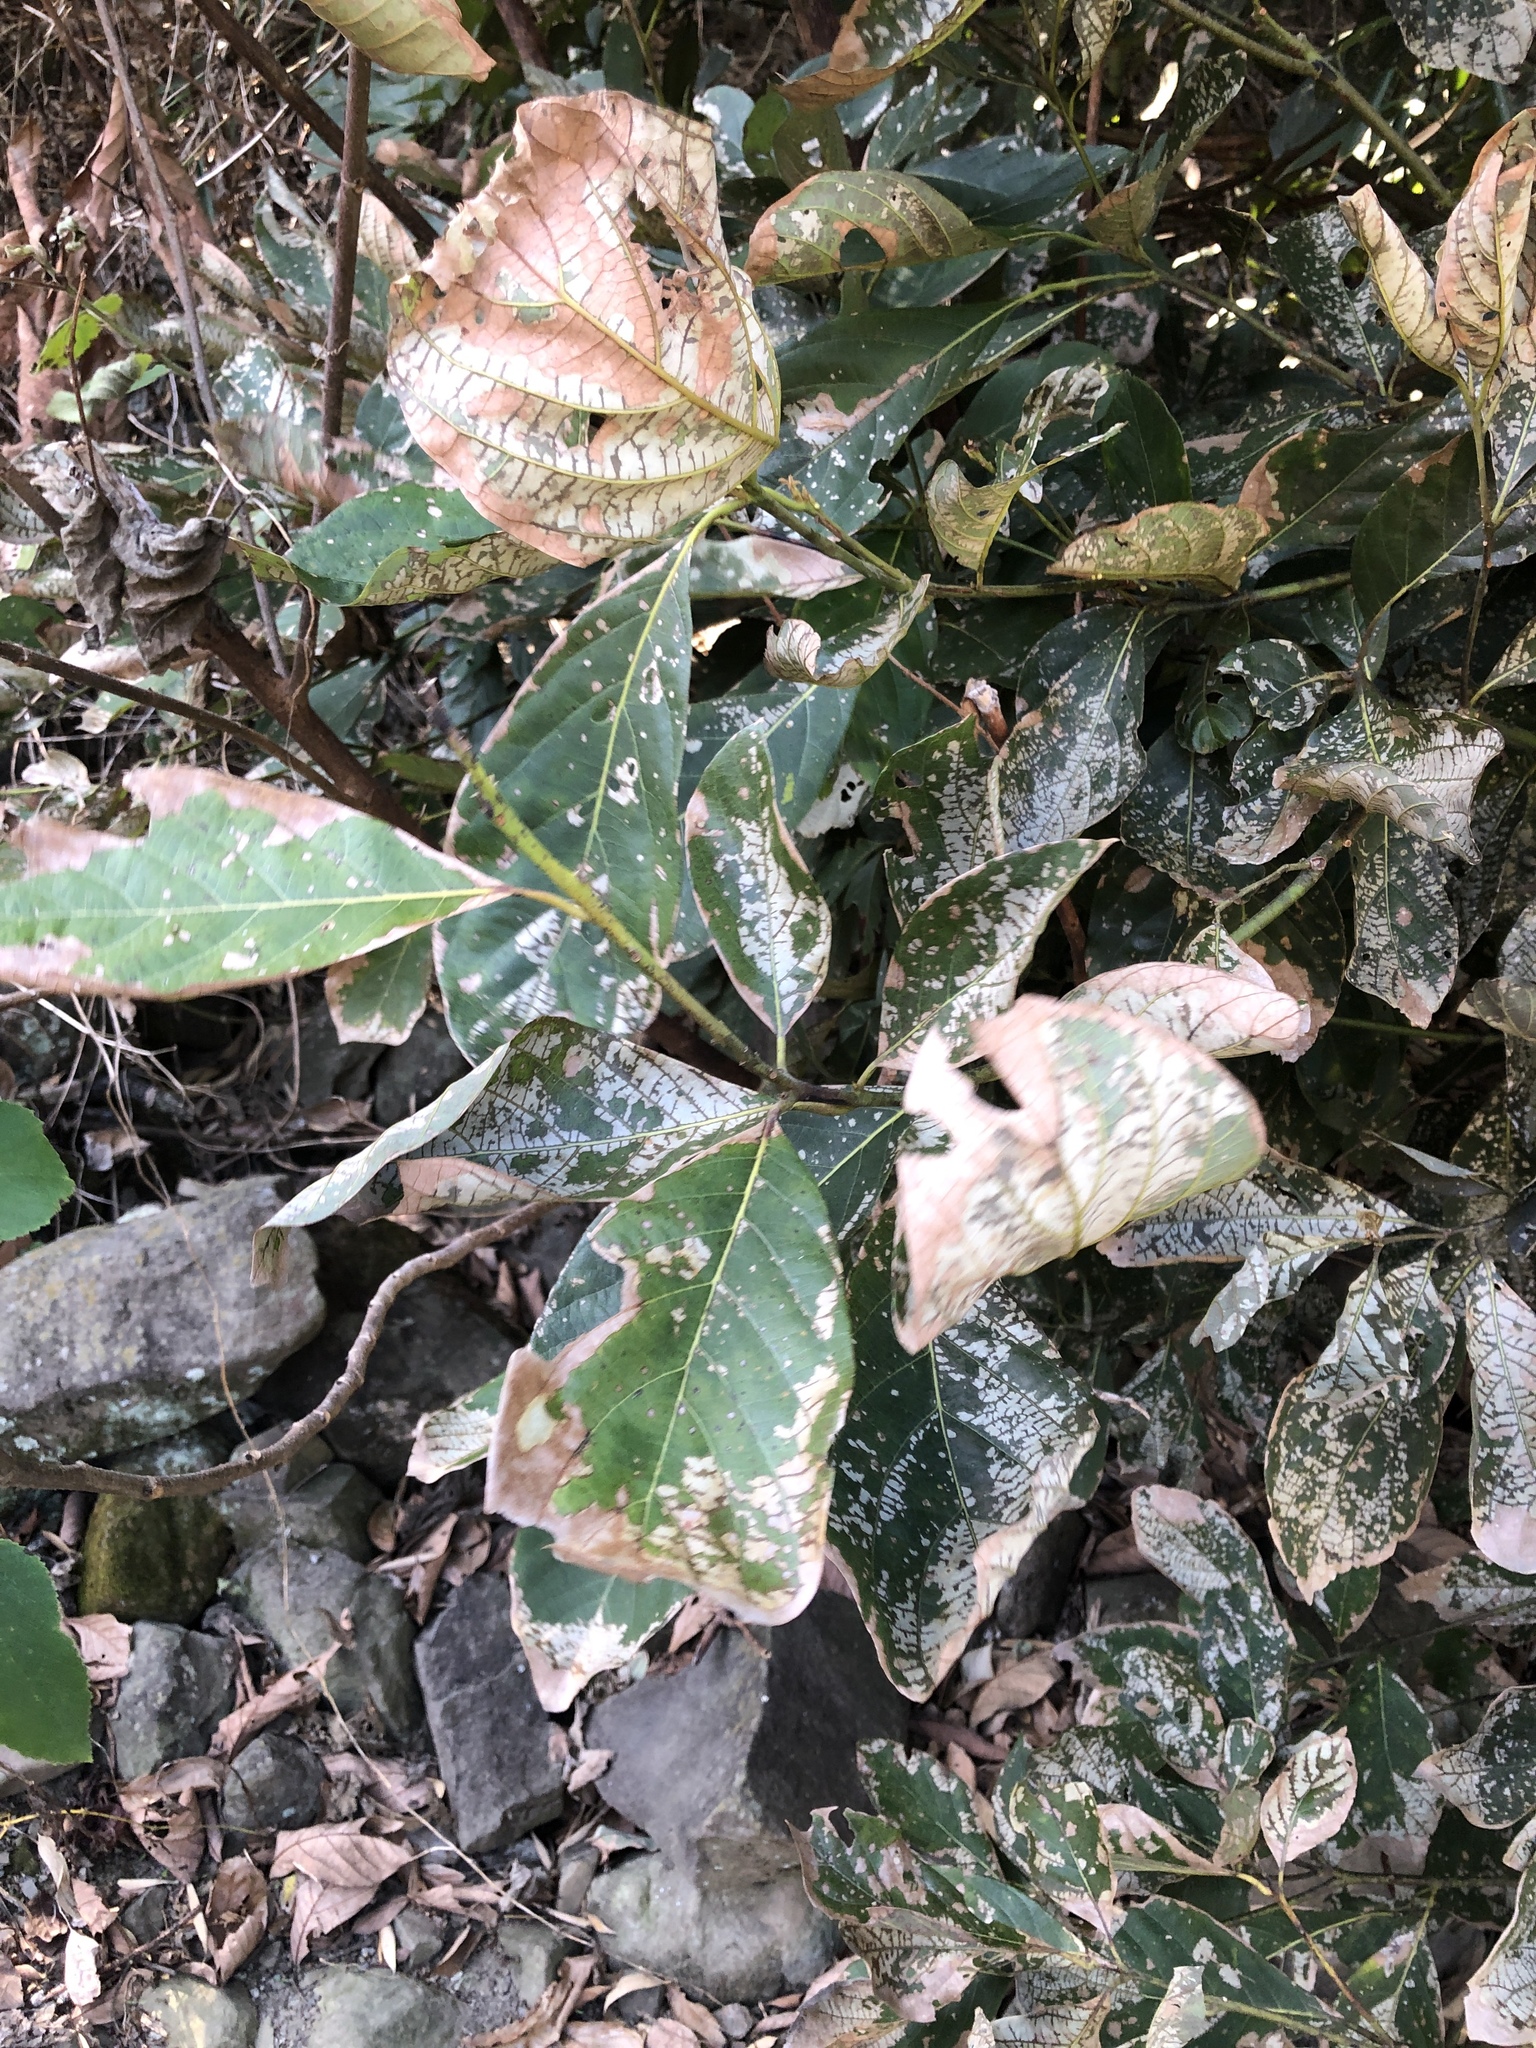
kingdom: Plantae
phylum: Tracheophyta
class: Magnoliopsida
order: Laurales
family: Lauraceae
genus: Litsea
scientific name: Litsea akoensis
